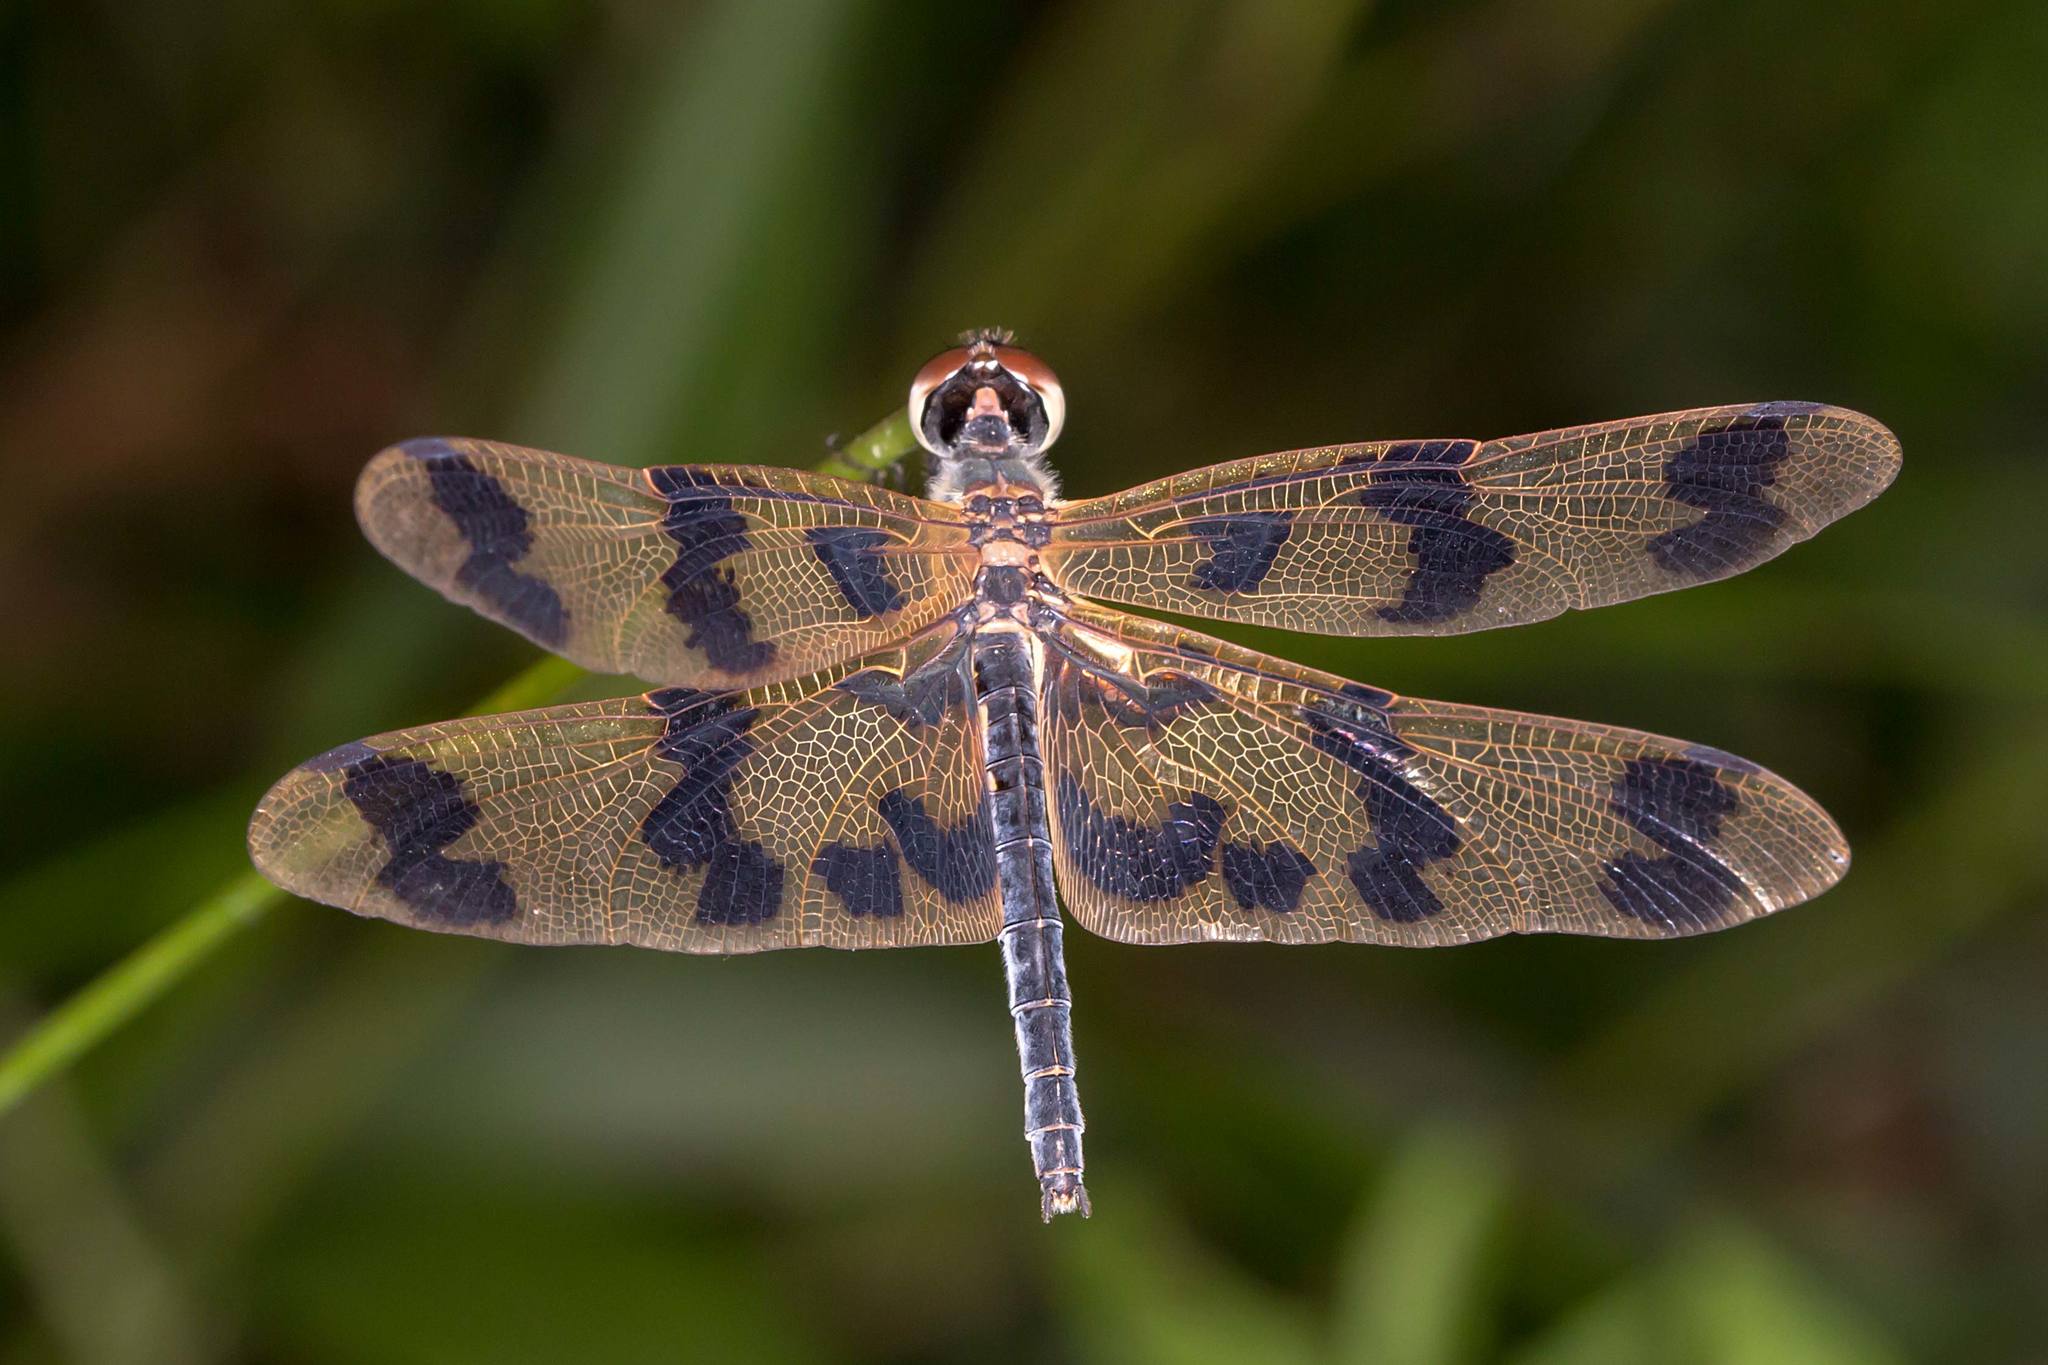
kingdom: Animalia
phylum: Arthropoda
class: Insecta
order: Odonata
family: Libellulidae
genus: Rhyothemis
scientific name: Rhyothemis graphiptera
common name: Graphic flutterer
